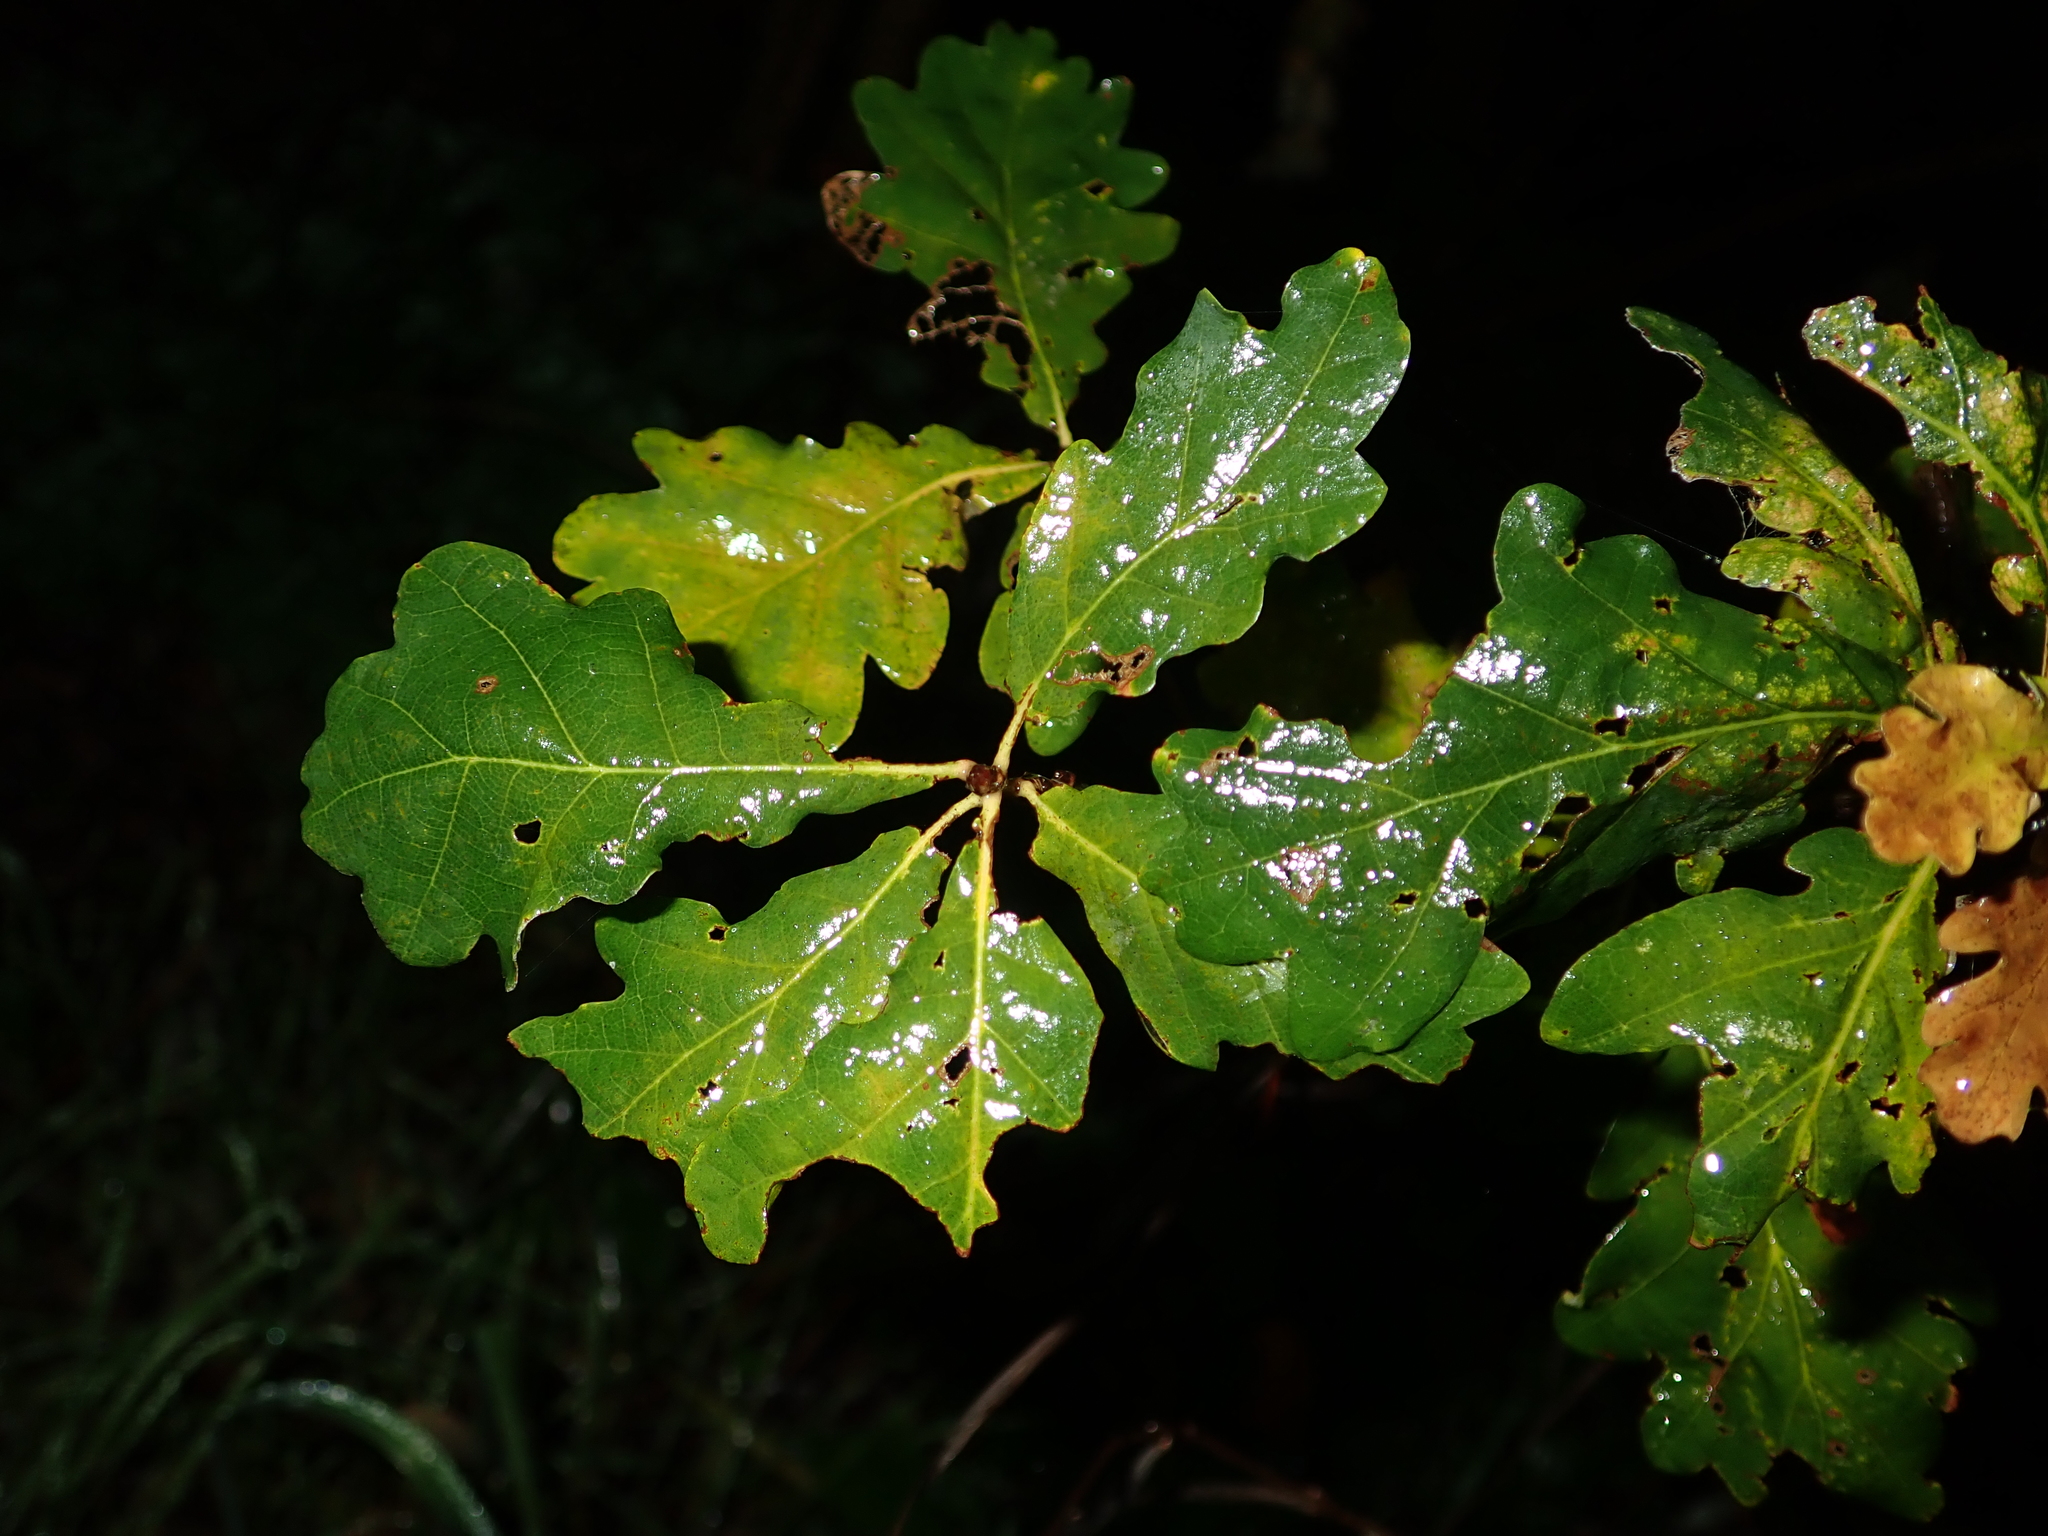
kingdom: Plantae
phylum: Tracheophyta
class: Magnoliopsida
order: Fagales
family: Fagaceae
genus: Quercus
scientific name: Quercus robur
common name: Pedunculate oak
